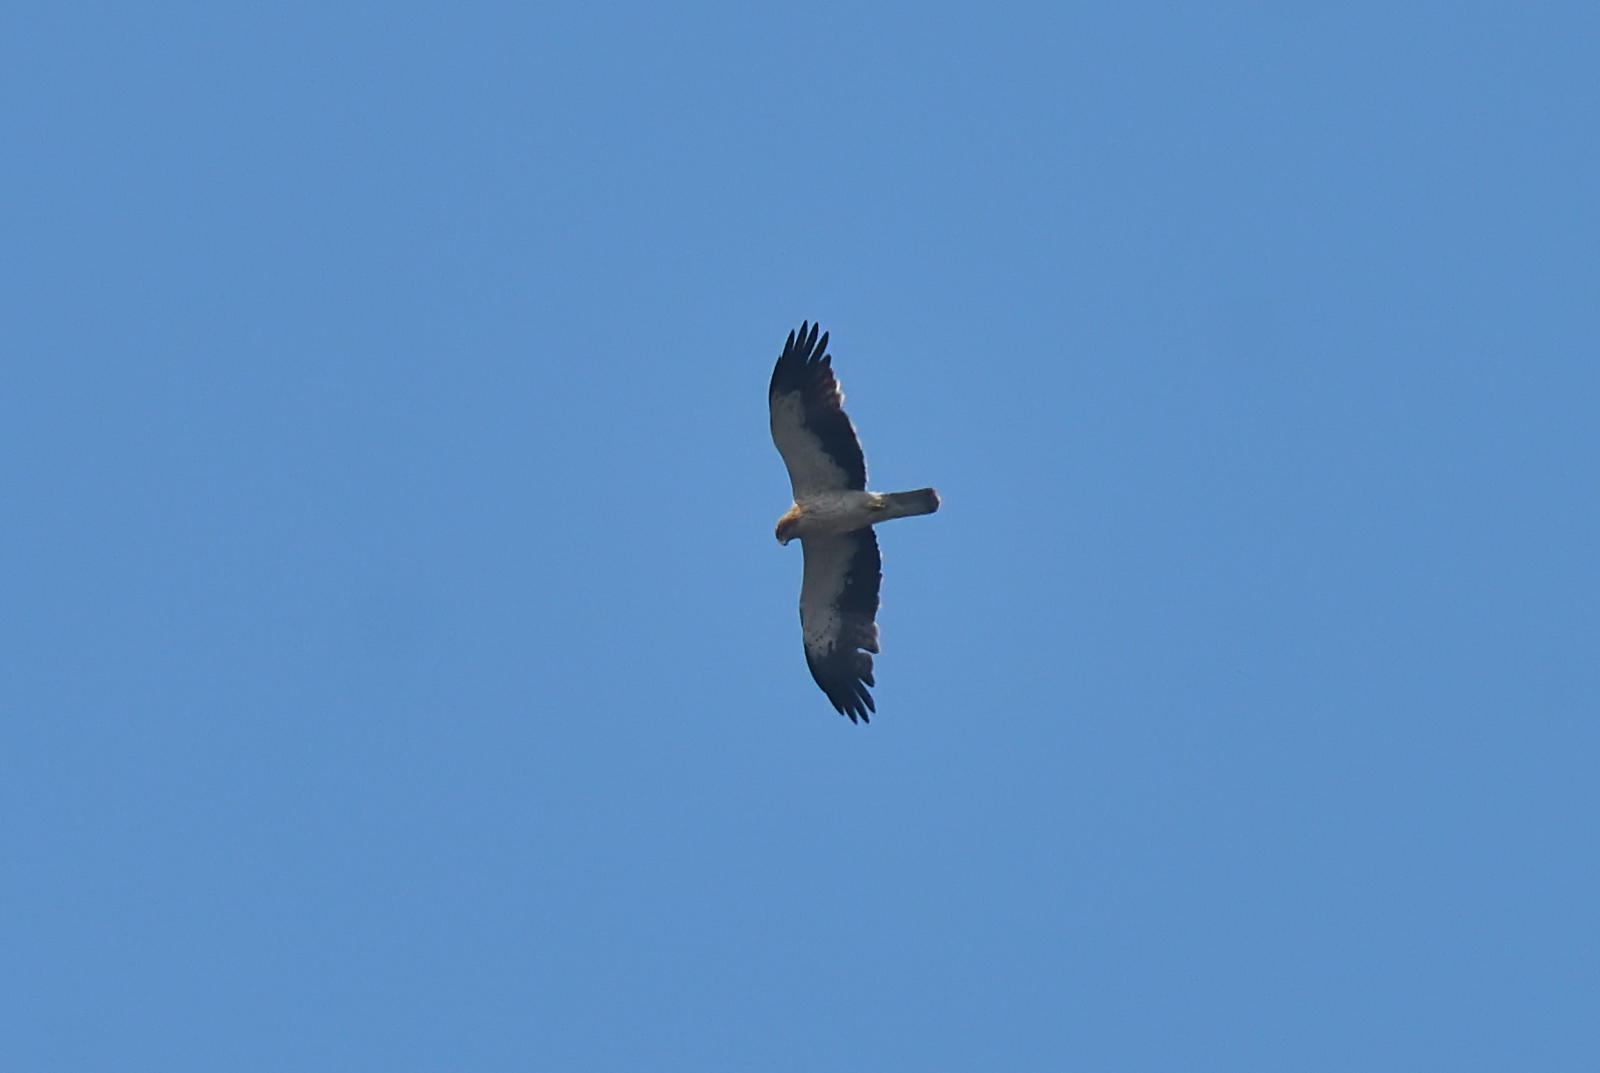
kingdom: Animalia
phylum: Chordata
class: Aves
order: Accipitriformes
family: Accipitridae
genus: Hieraaetus
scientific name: Hieraaetus pennatus
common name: Booted eagle
